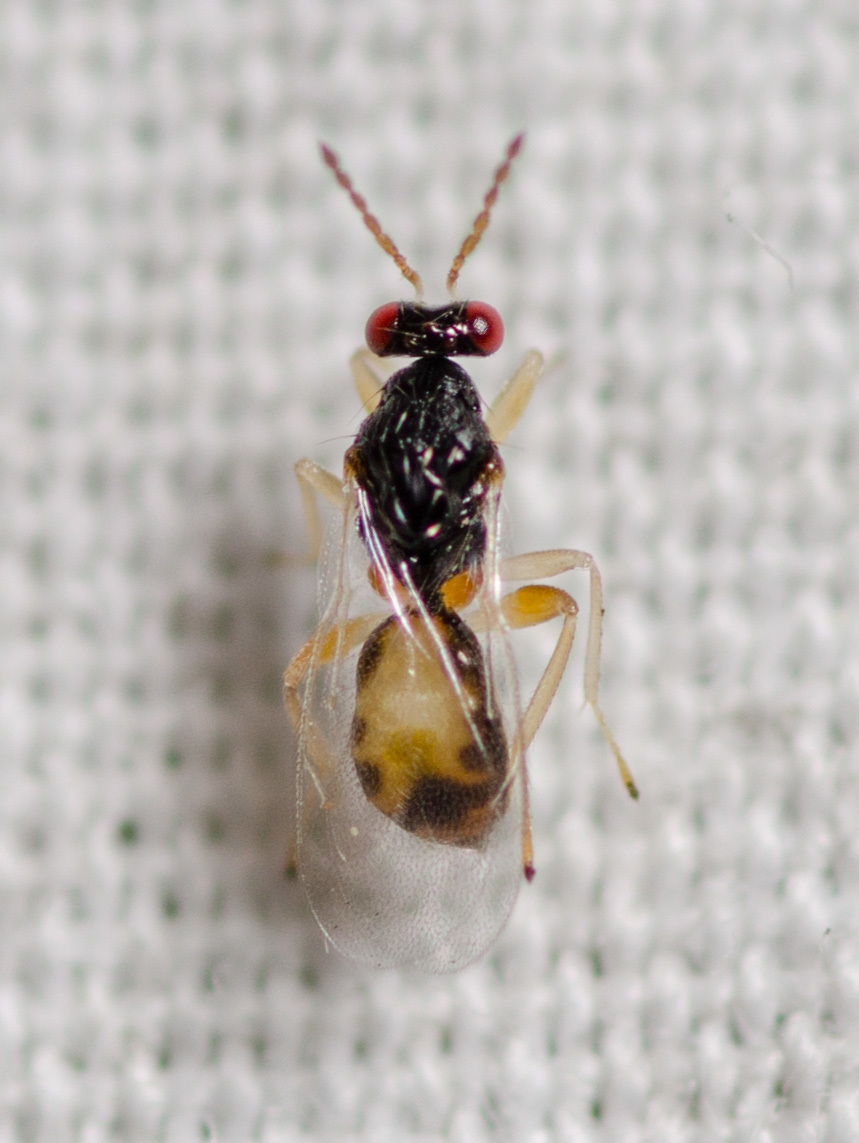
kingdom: Animalia
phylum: Arthropoda
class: Insecta
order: Hymenoptera
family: Eulophidae
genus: Euplectrus
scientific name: Euplectrus
